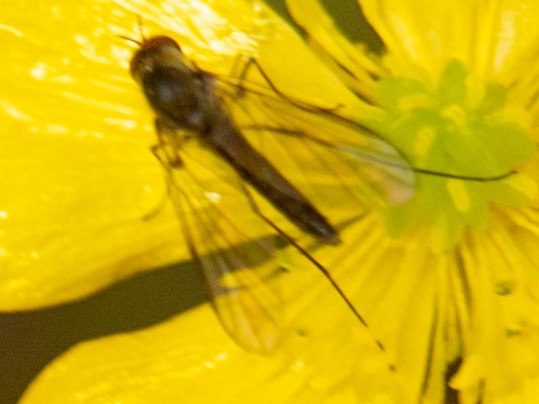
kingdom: Animalia
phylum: Arthropoda
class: Insecta
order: Diptera
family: Bombyliidae
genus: Geron
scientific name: Geron calvus
